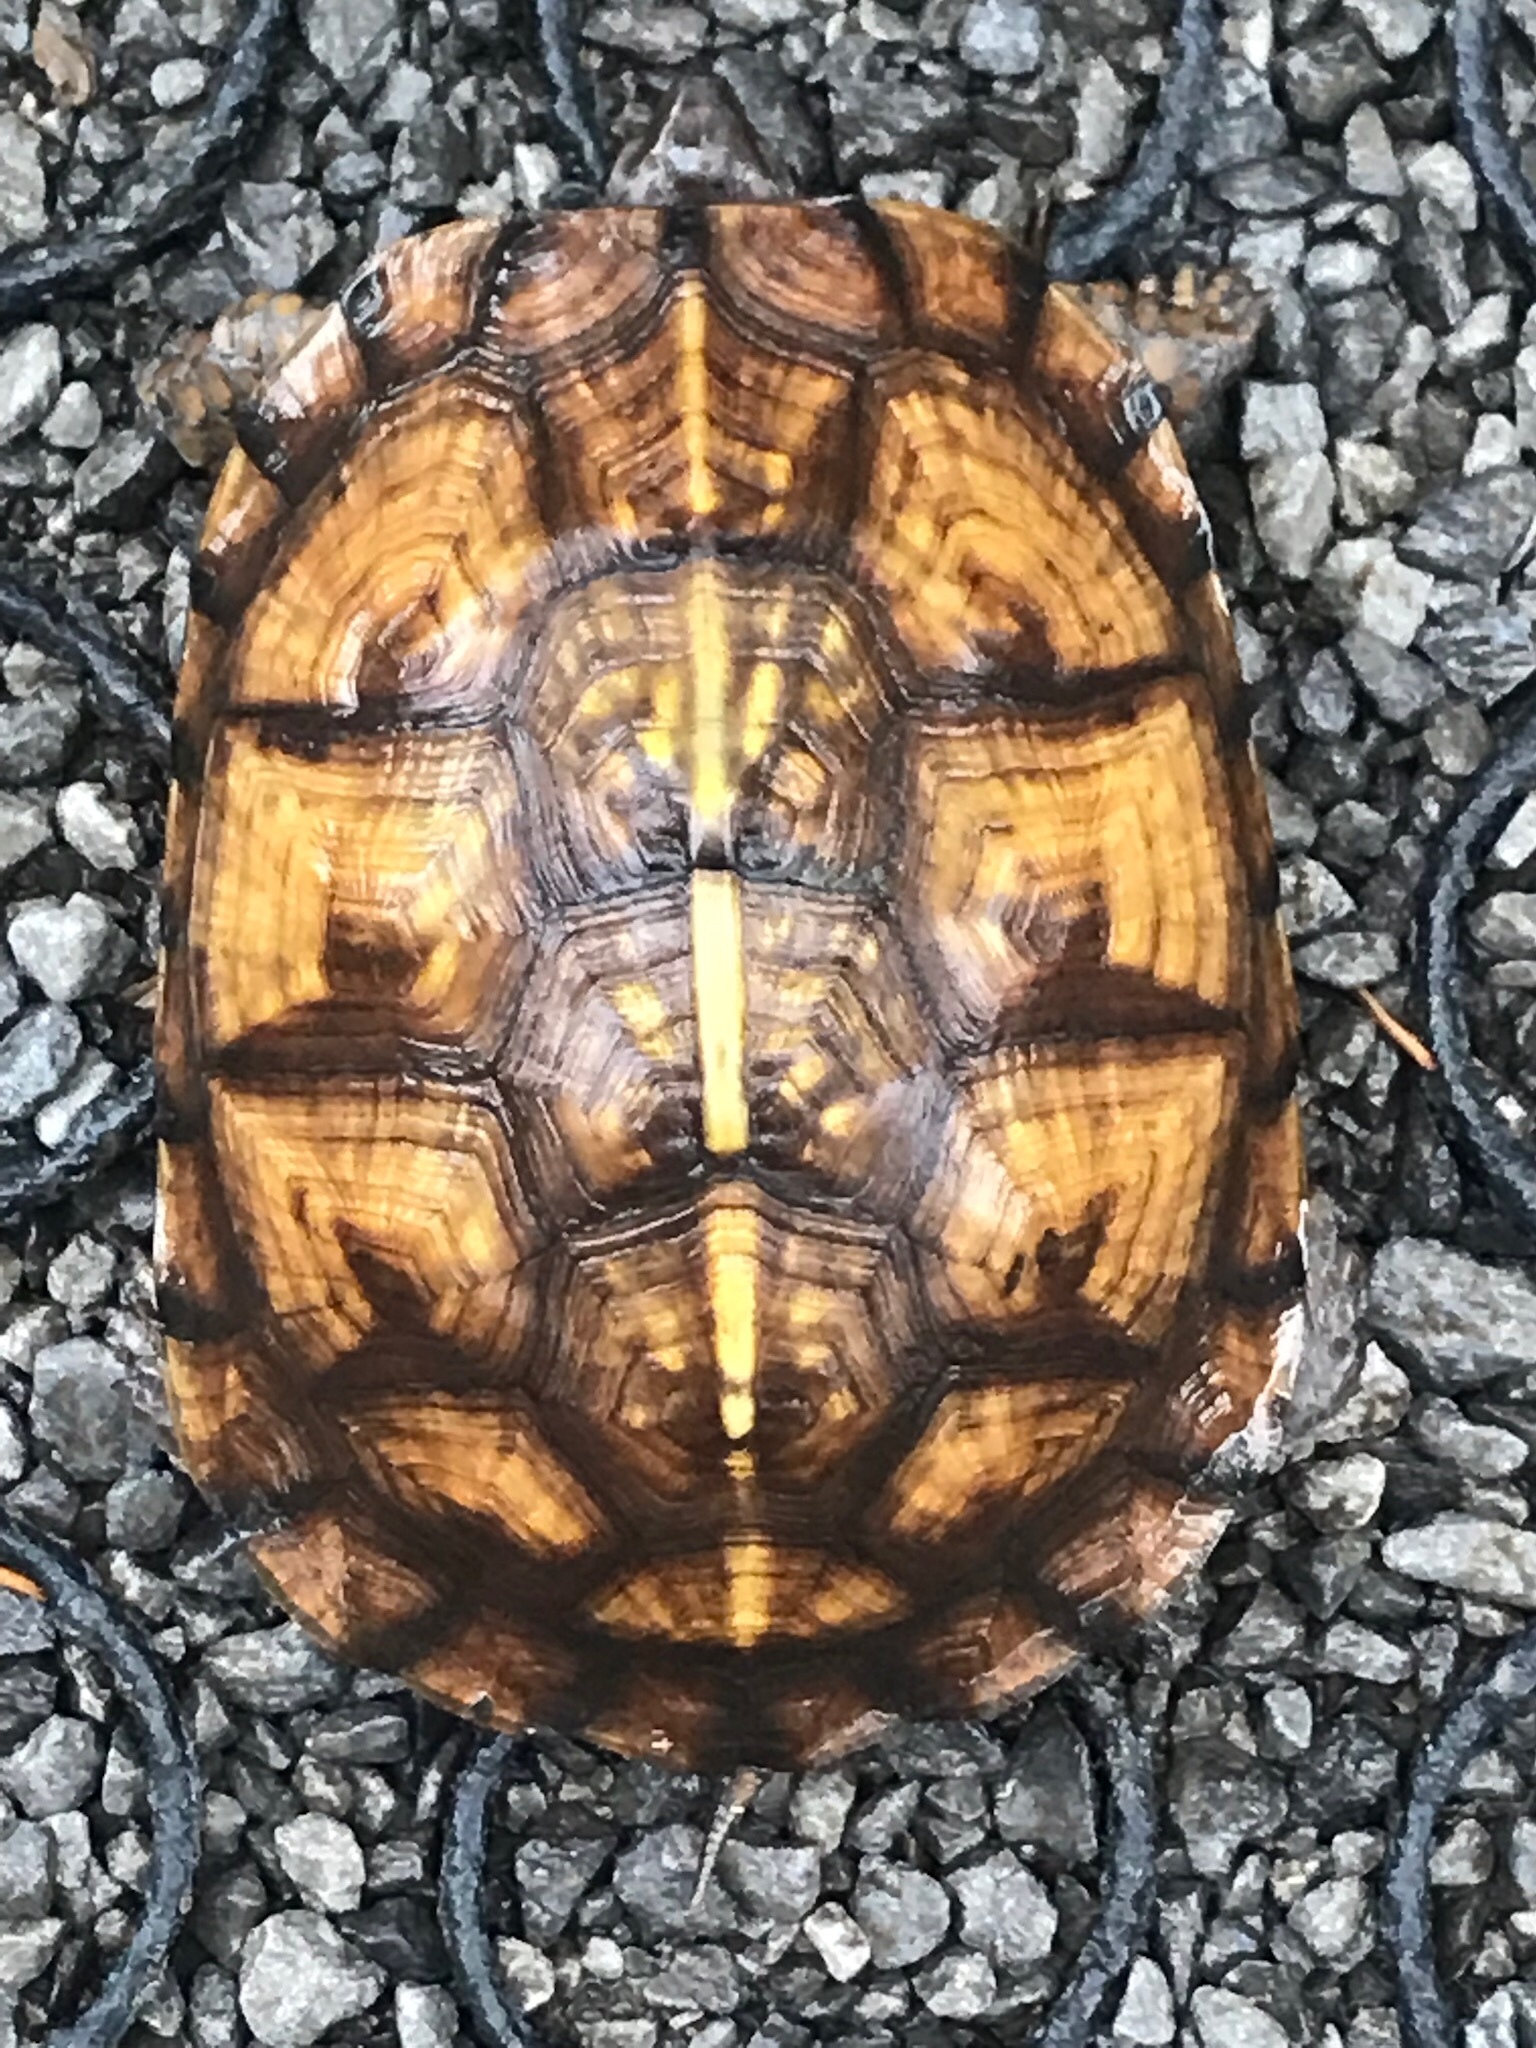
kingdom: Animalia
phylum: Chordata
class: Testudines
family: Emydidae
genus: Terrapene
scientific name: Terrapene carolina
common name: Common box turtle
